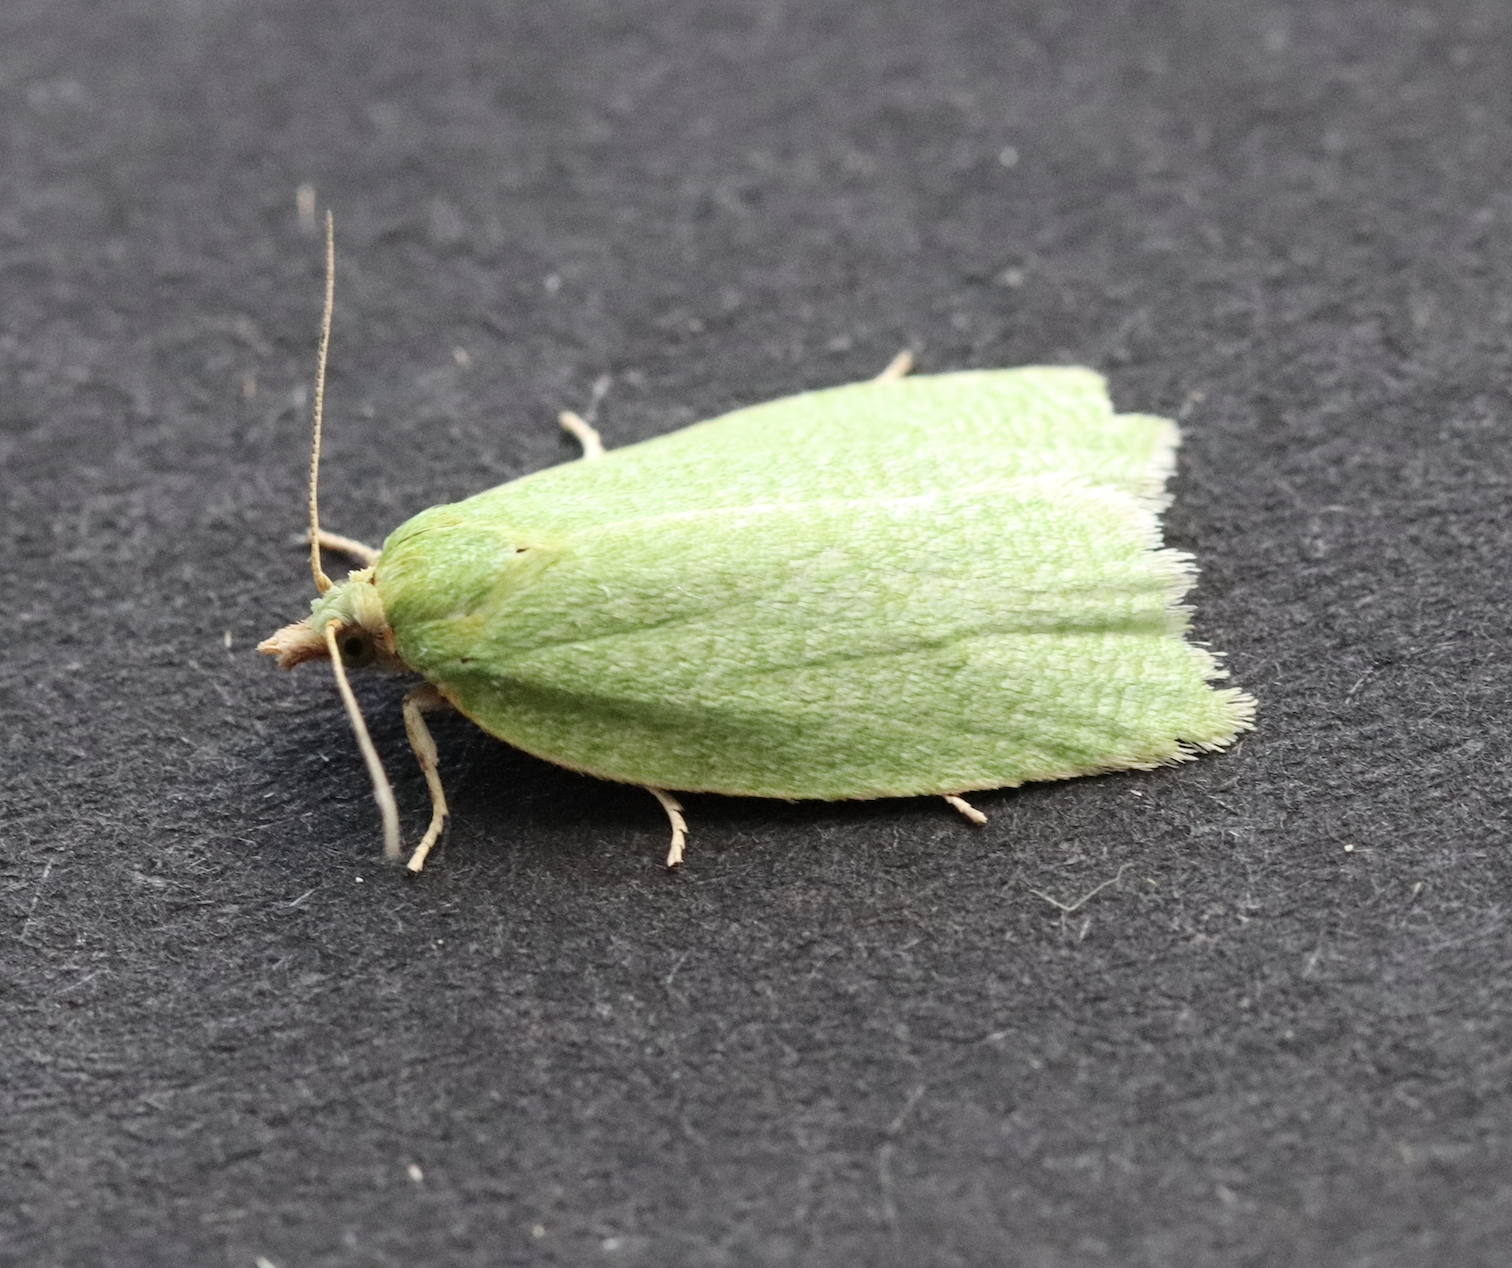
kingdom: Animalia
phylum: Arthropoda
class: Insecta
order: Lepidoptera
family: Tortricidae
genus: Tortrix
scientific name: Tortrix viridana
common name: Green oak tortrix
